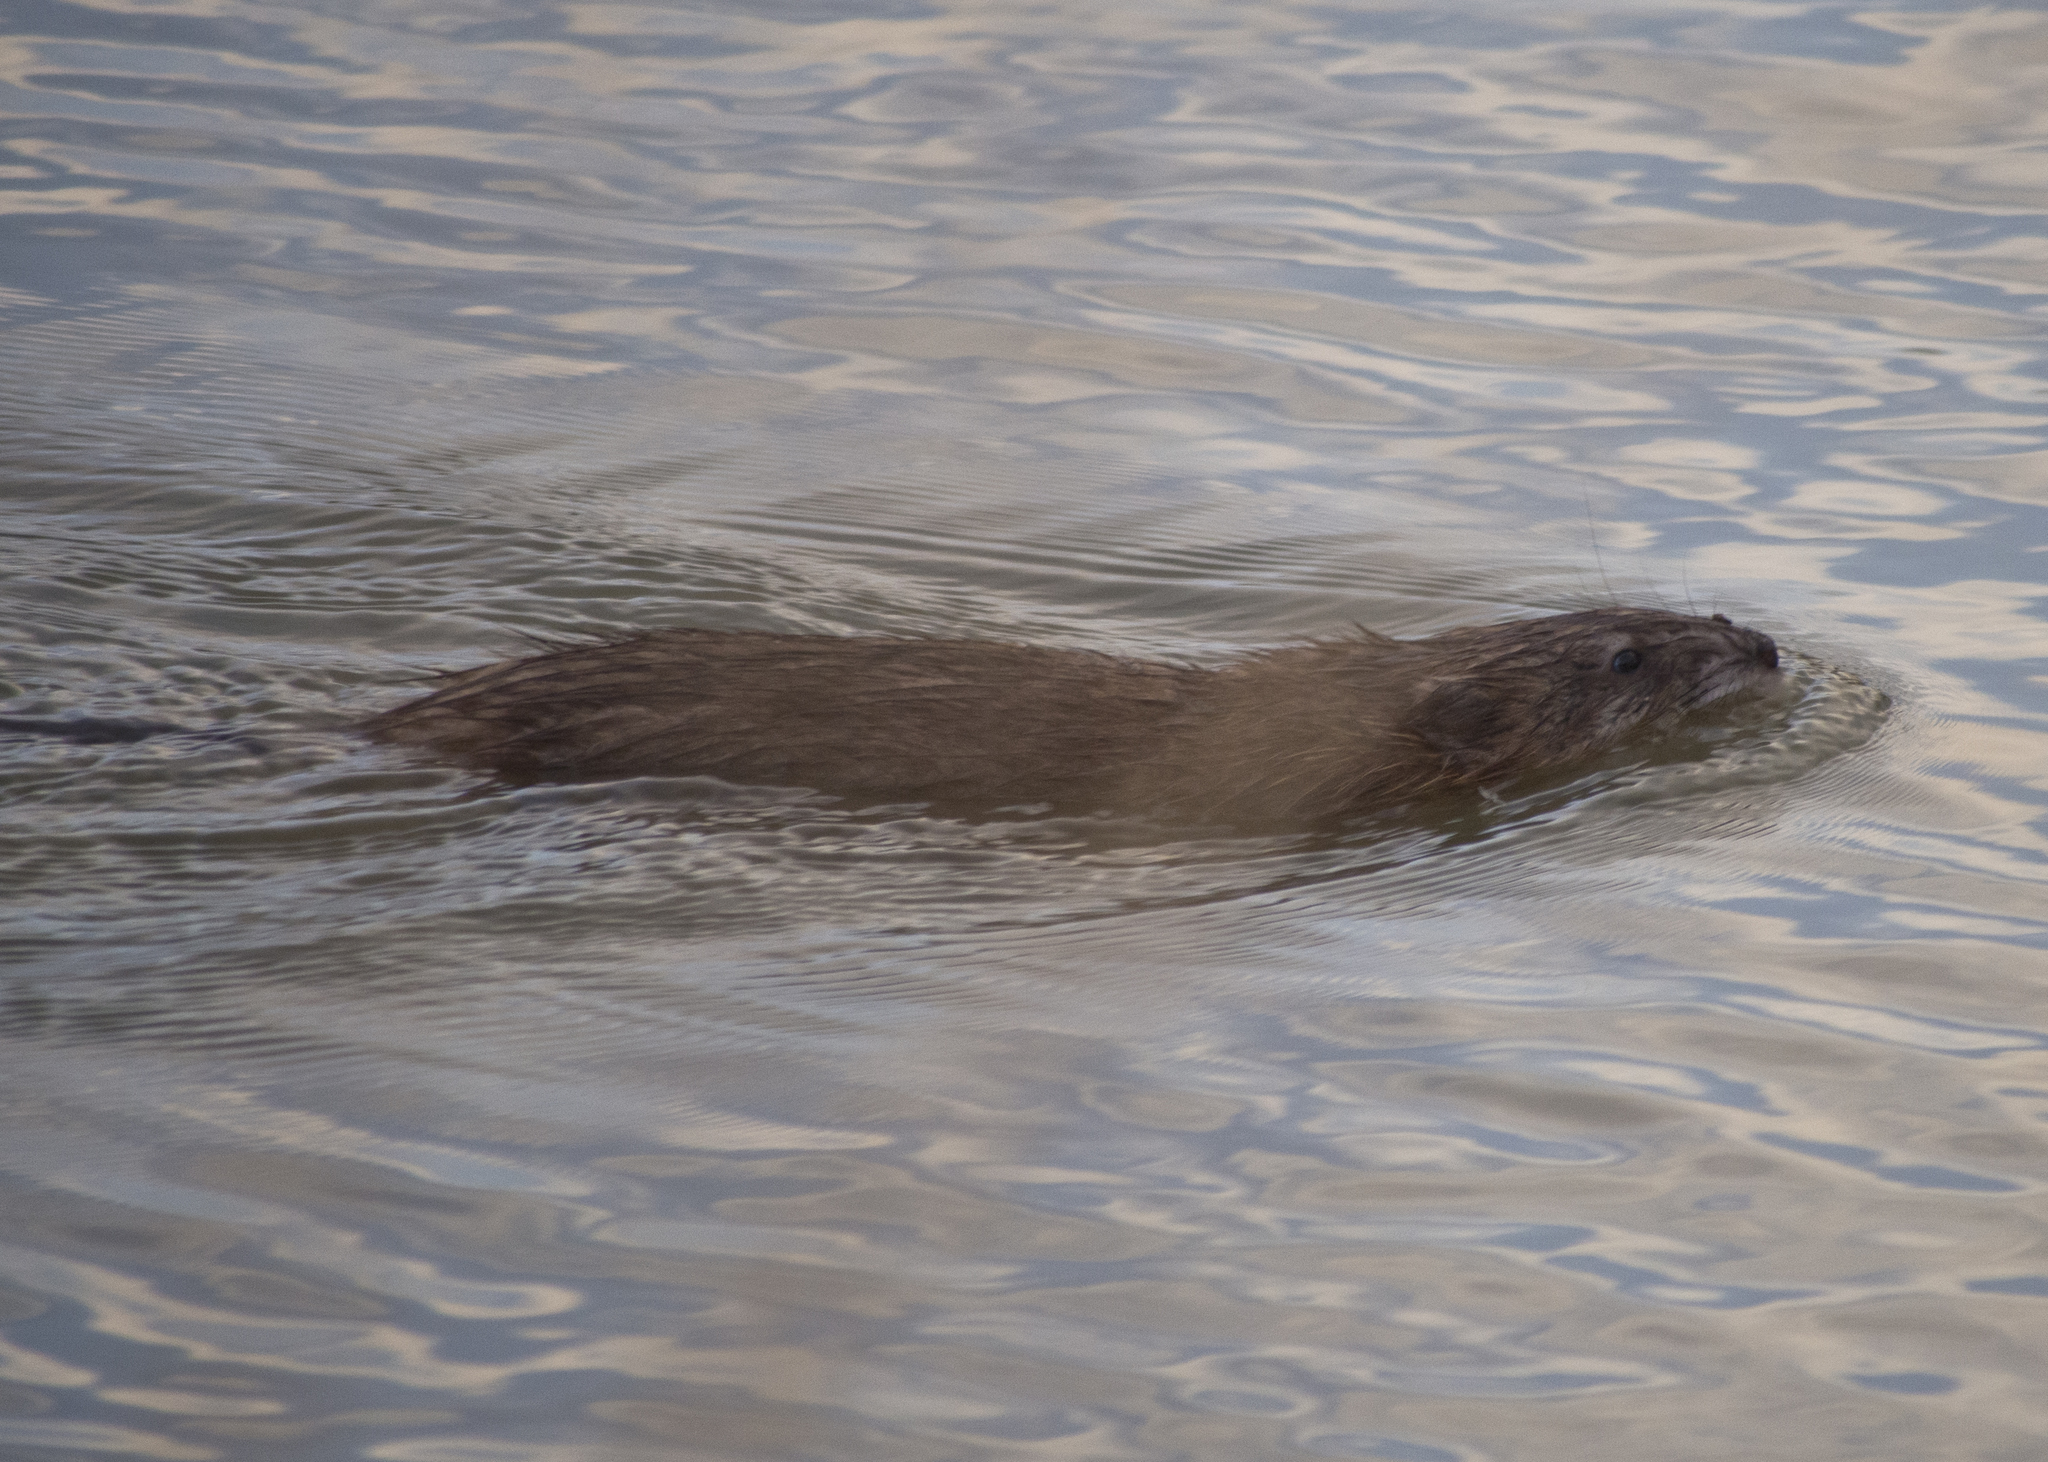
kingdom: Animalia
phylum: Chordata
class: Mammalia
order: Rodentia
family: Cricetidae
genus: Ondatra
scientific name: Ondatra zibethicus
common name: Muskrat
